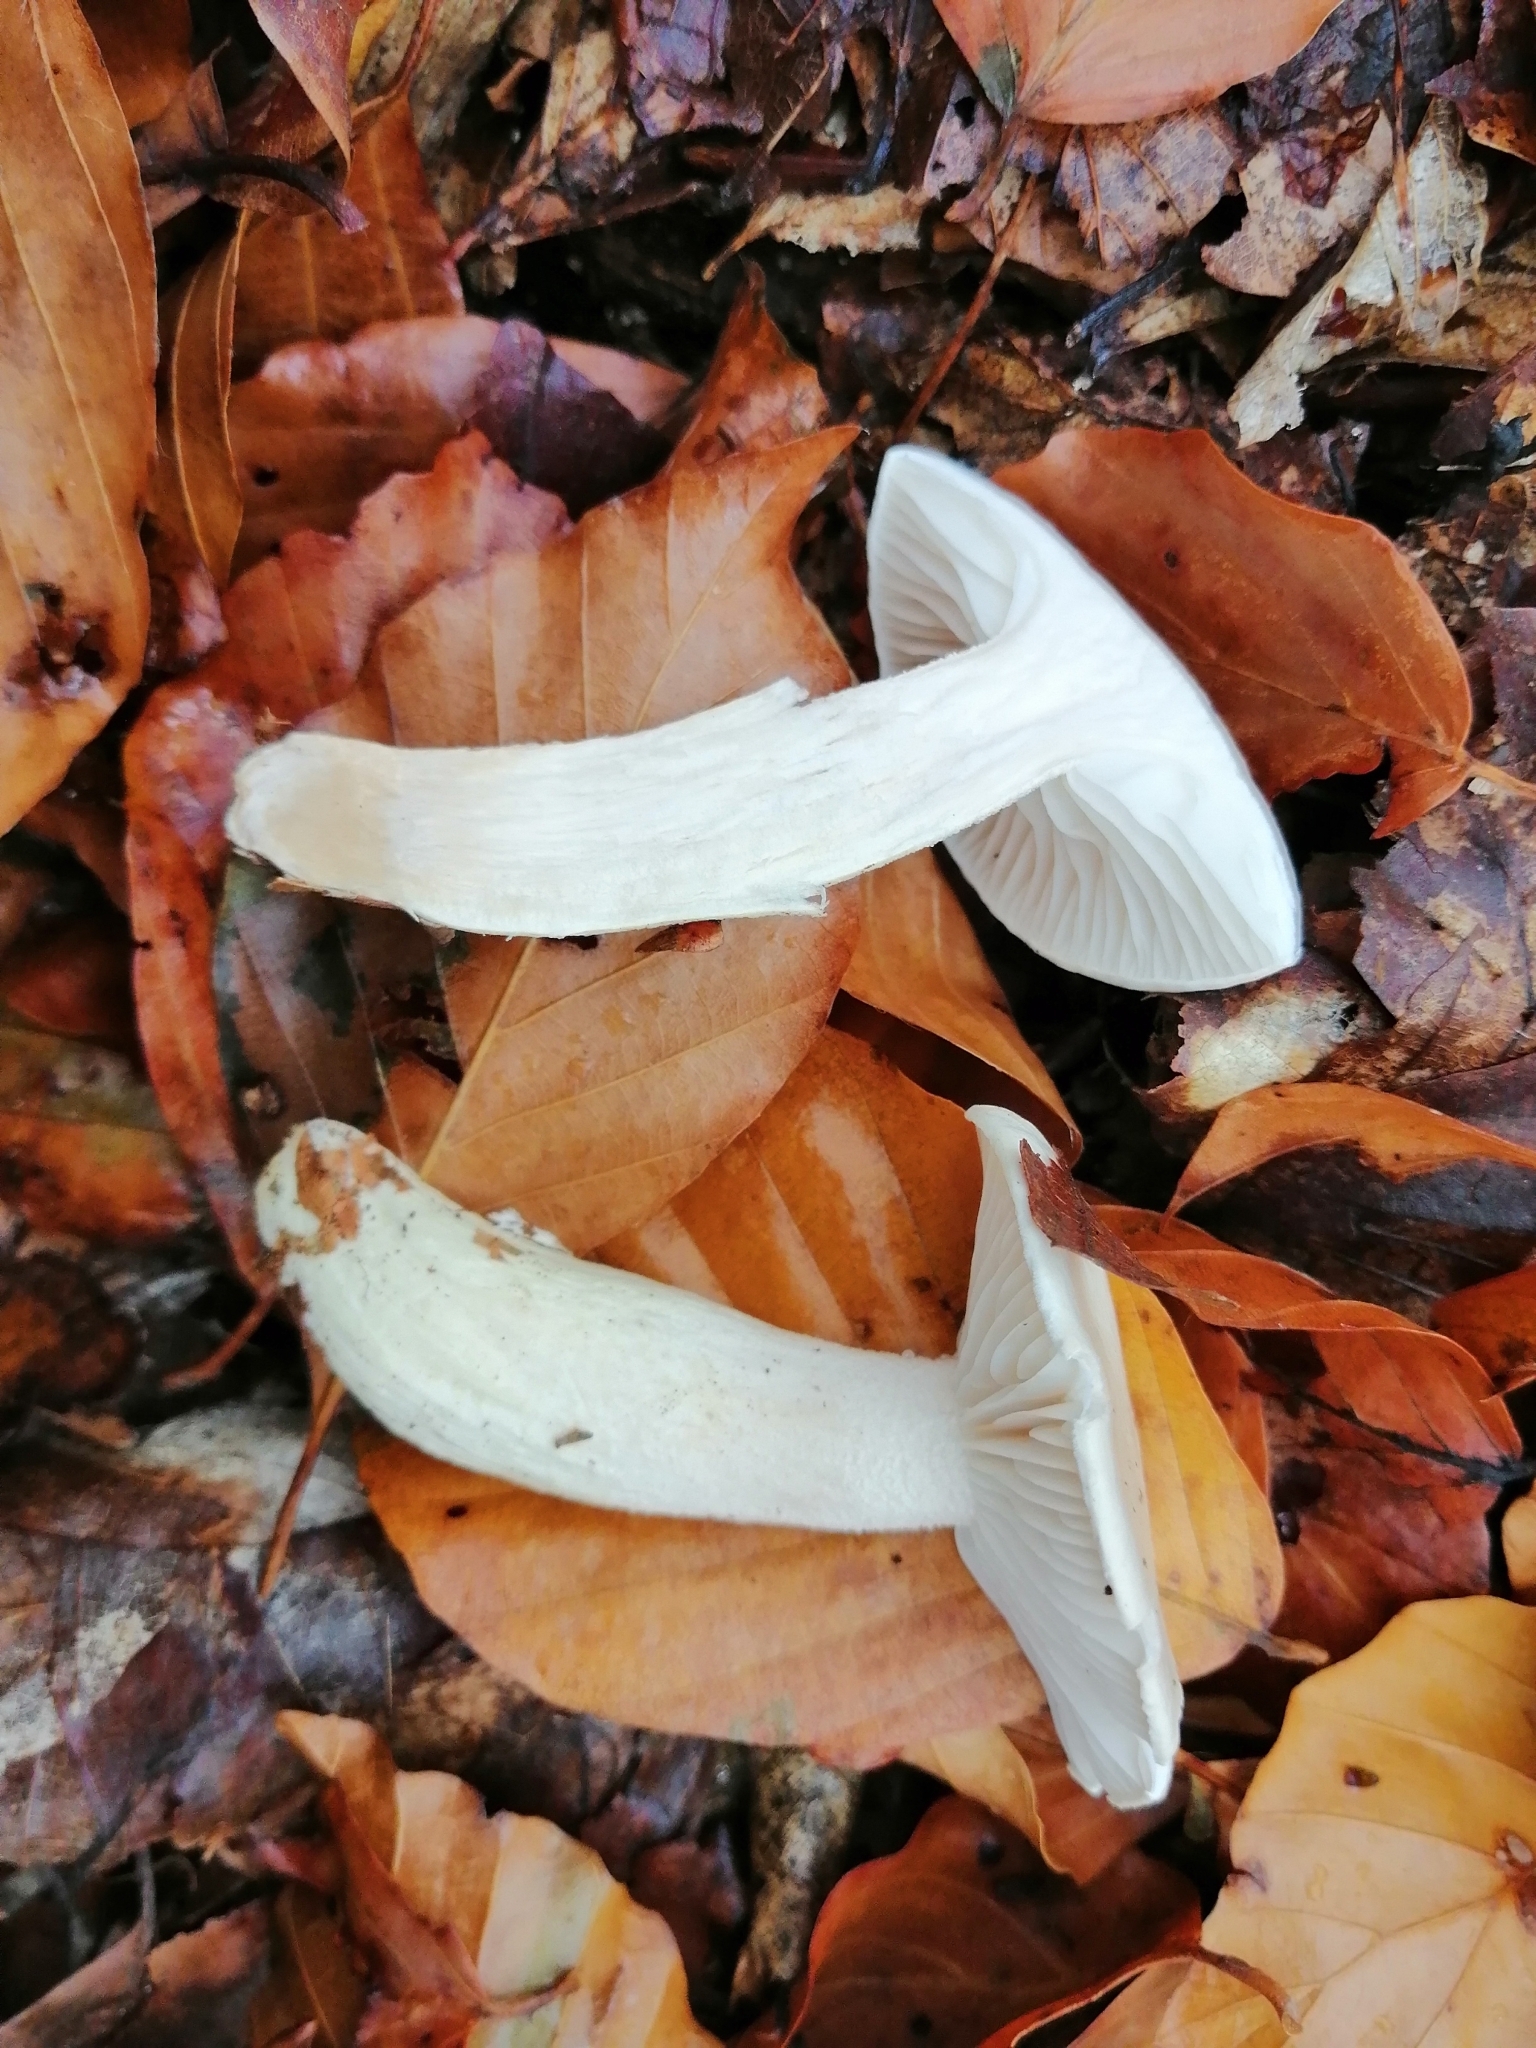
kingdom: Fungi
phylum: Basidiomycota
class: Agaricomycetes
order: Agaricales
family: Hygrophoraceae
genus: Hygrophorus
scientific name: Hygrophorus eburneus
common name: Ivory wax-cap
